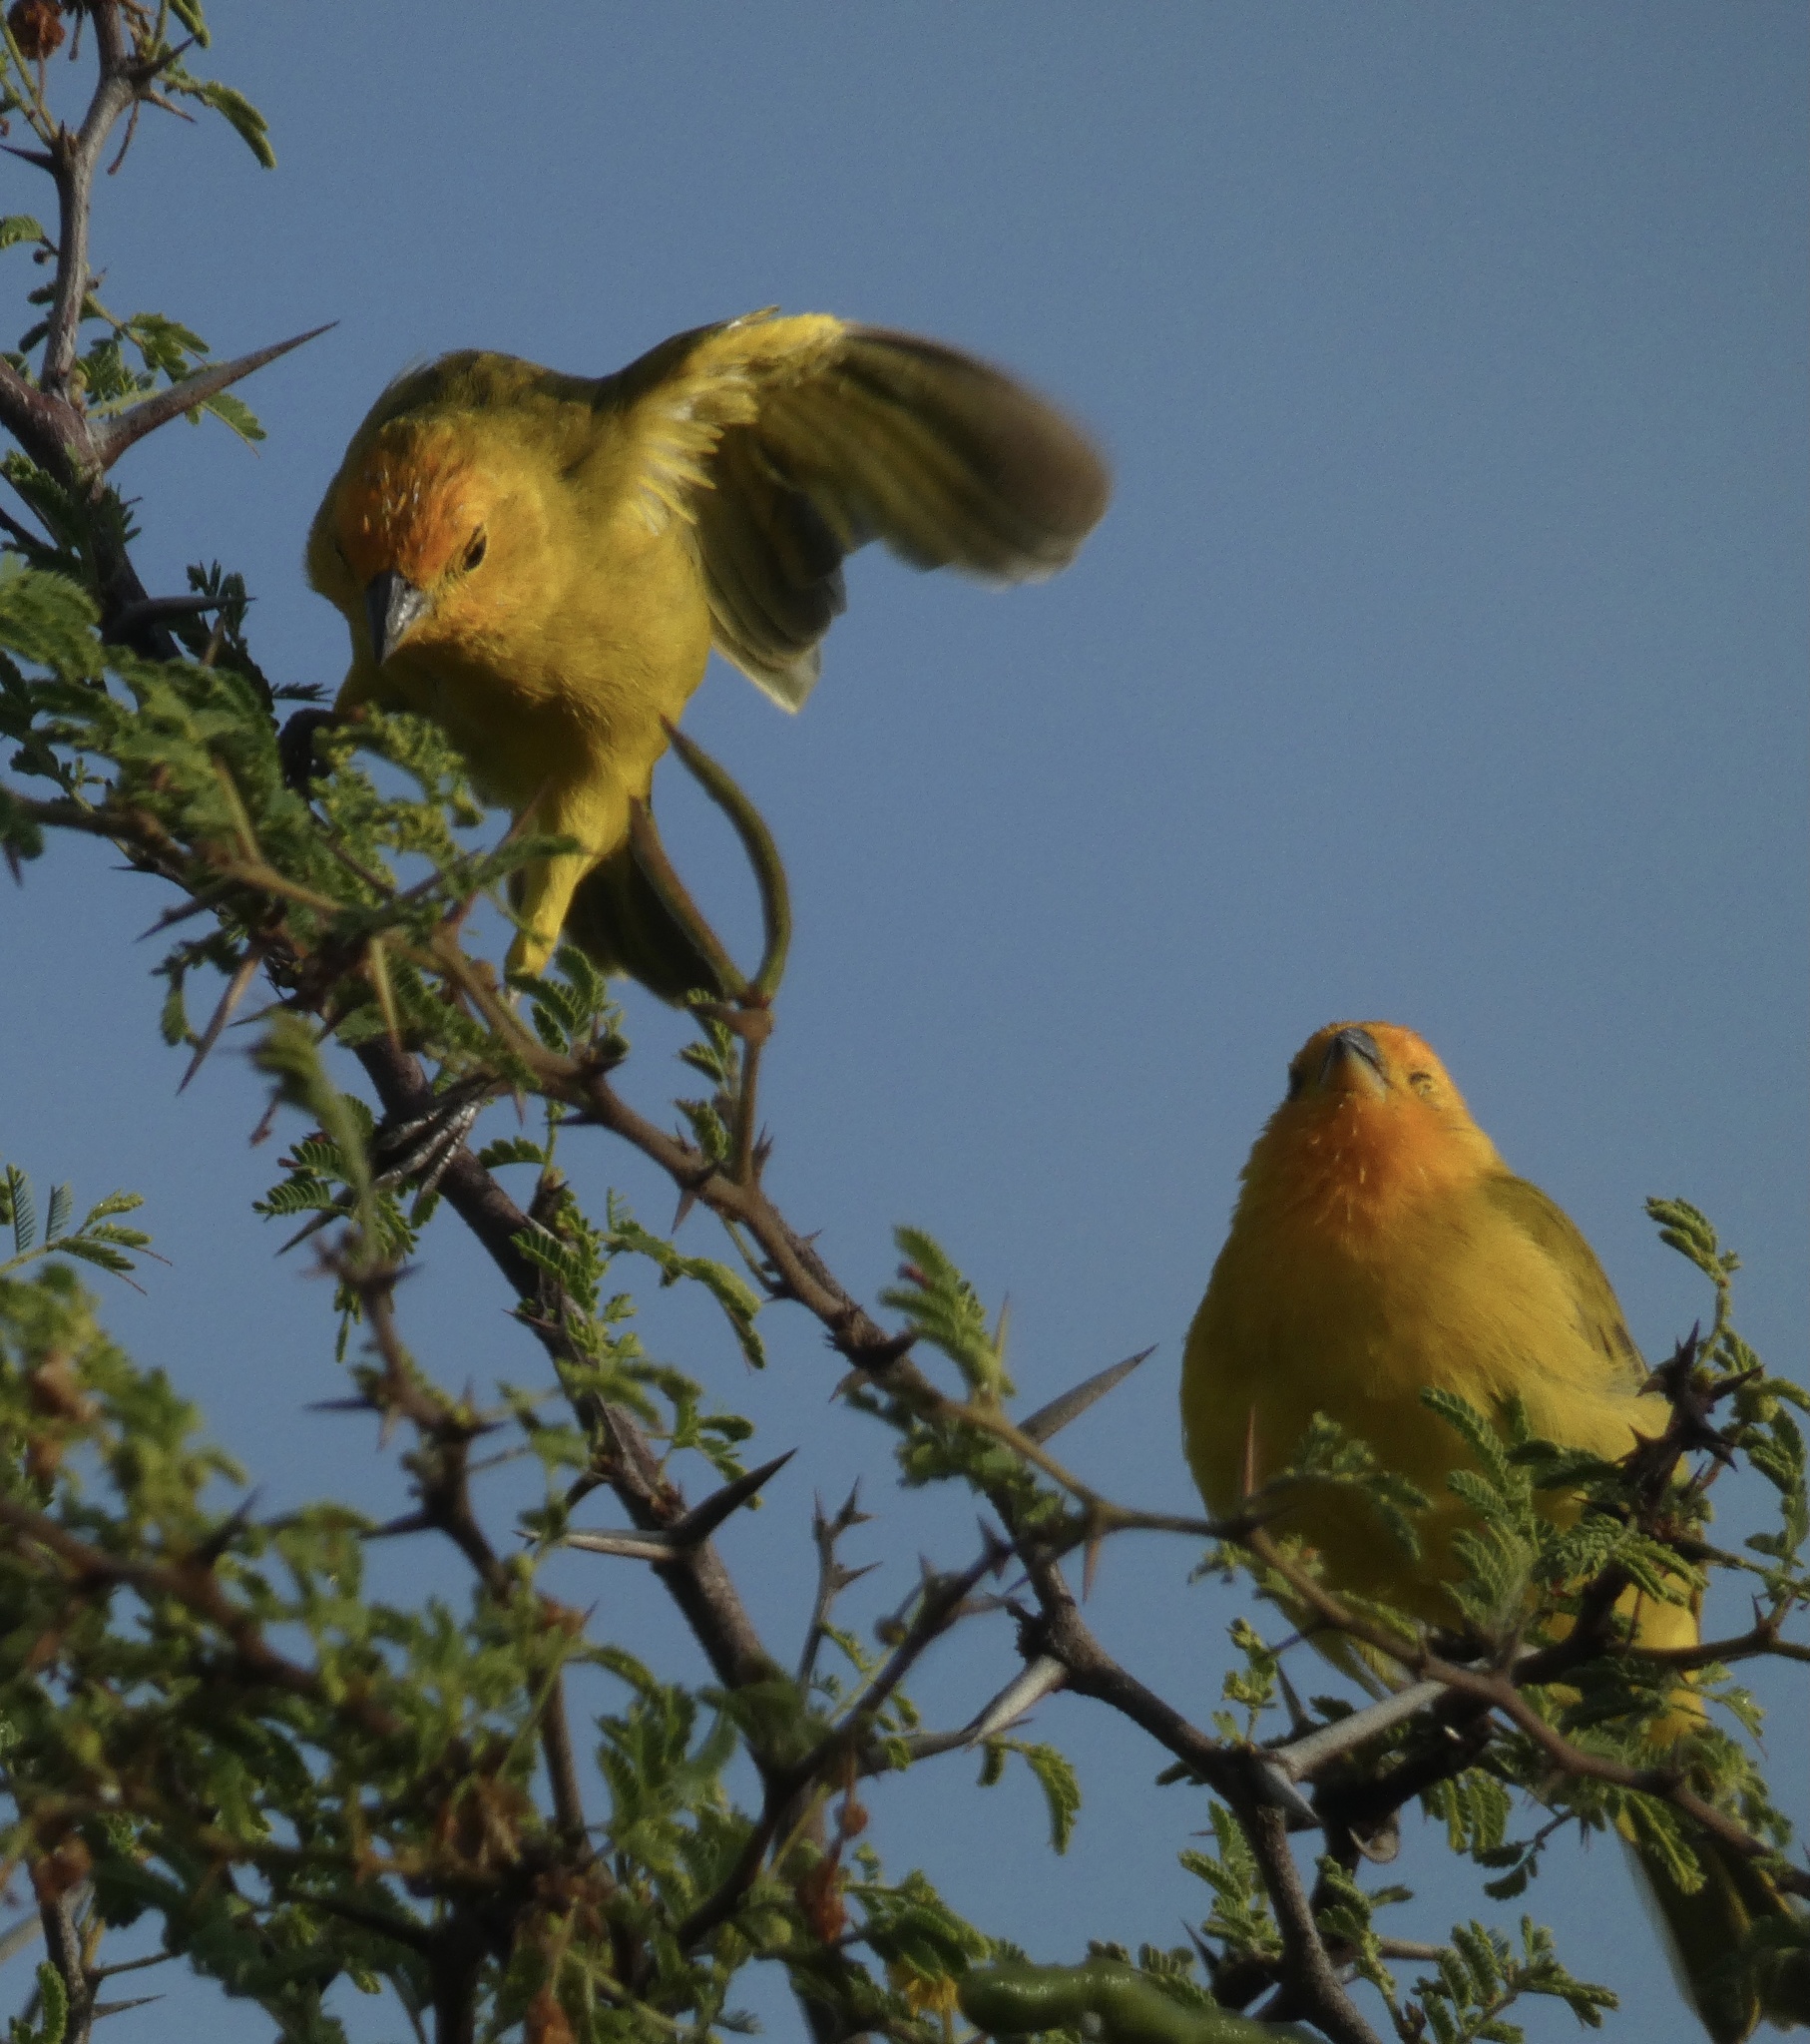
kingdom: Animalia
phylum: Chordata
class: Aves
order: Passeriformes
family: Thraupidae
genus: Sicalis
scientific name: Sicalis flaveola
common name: Saffron finch
